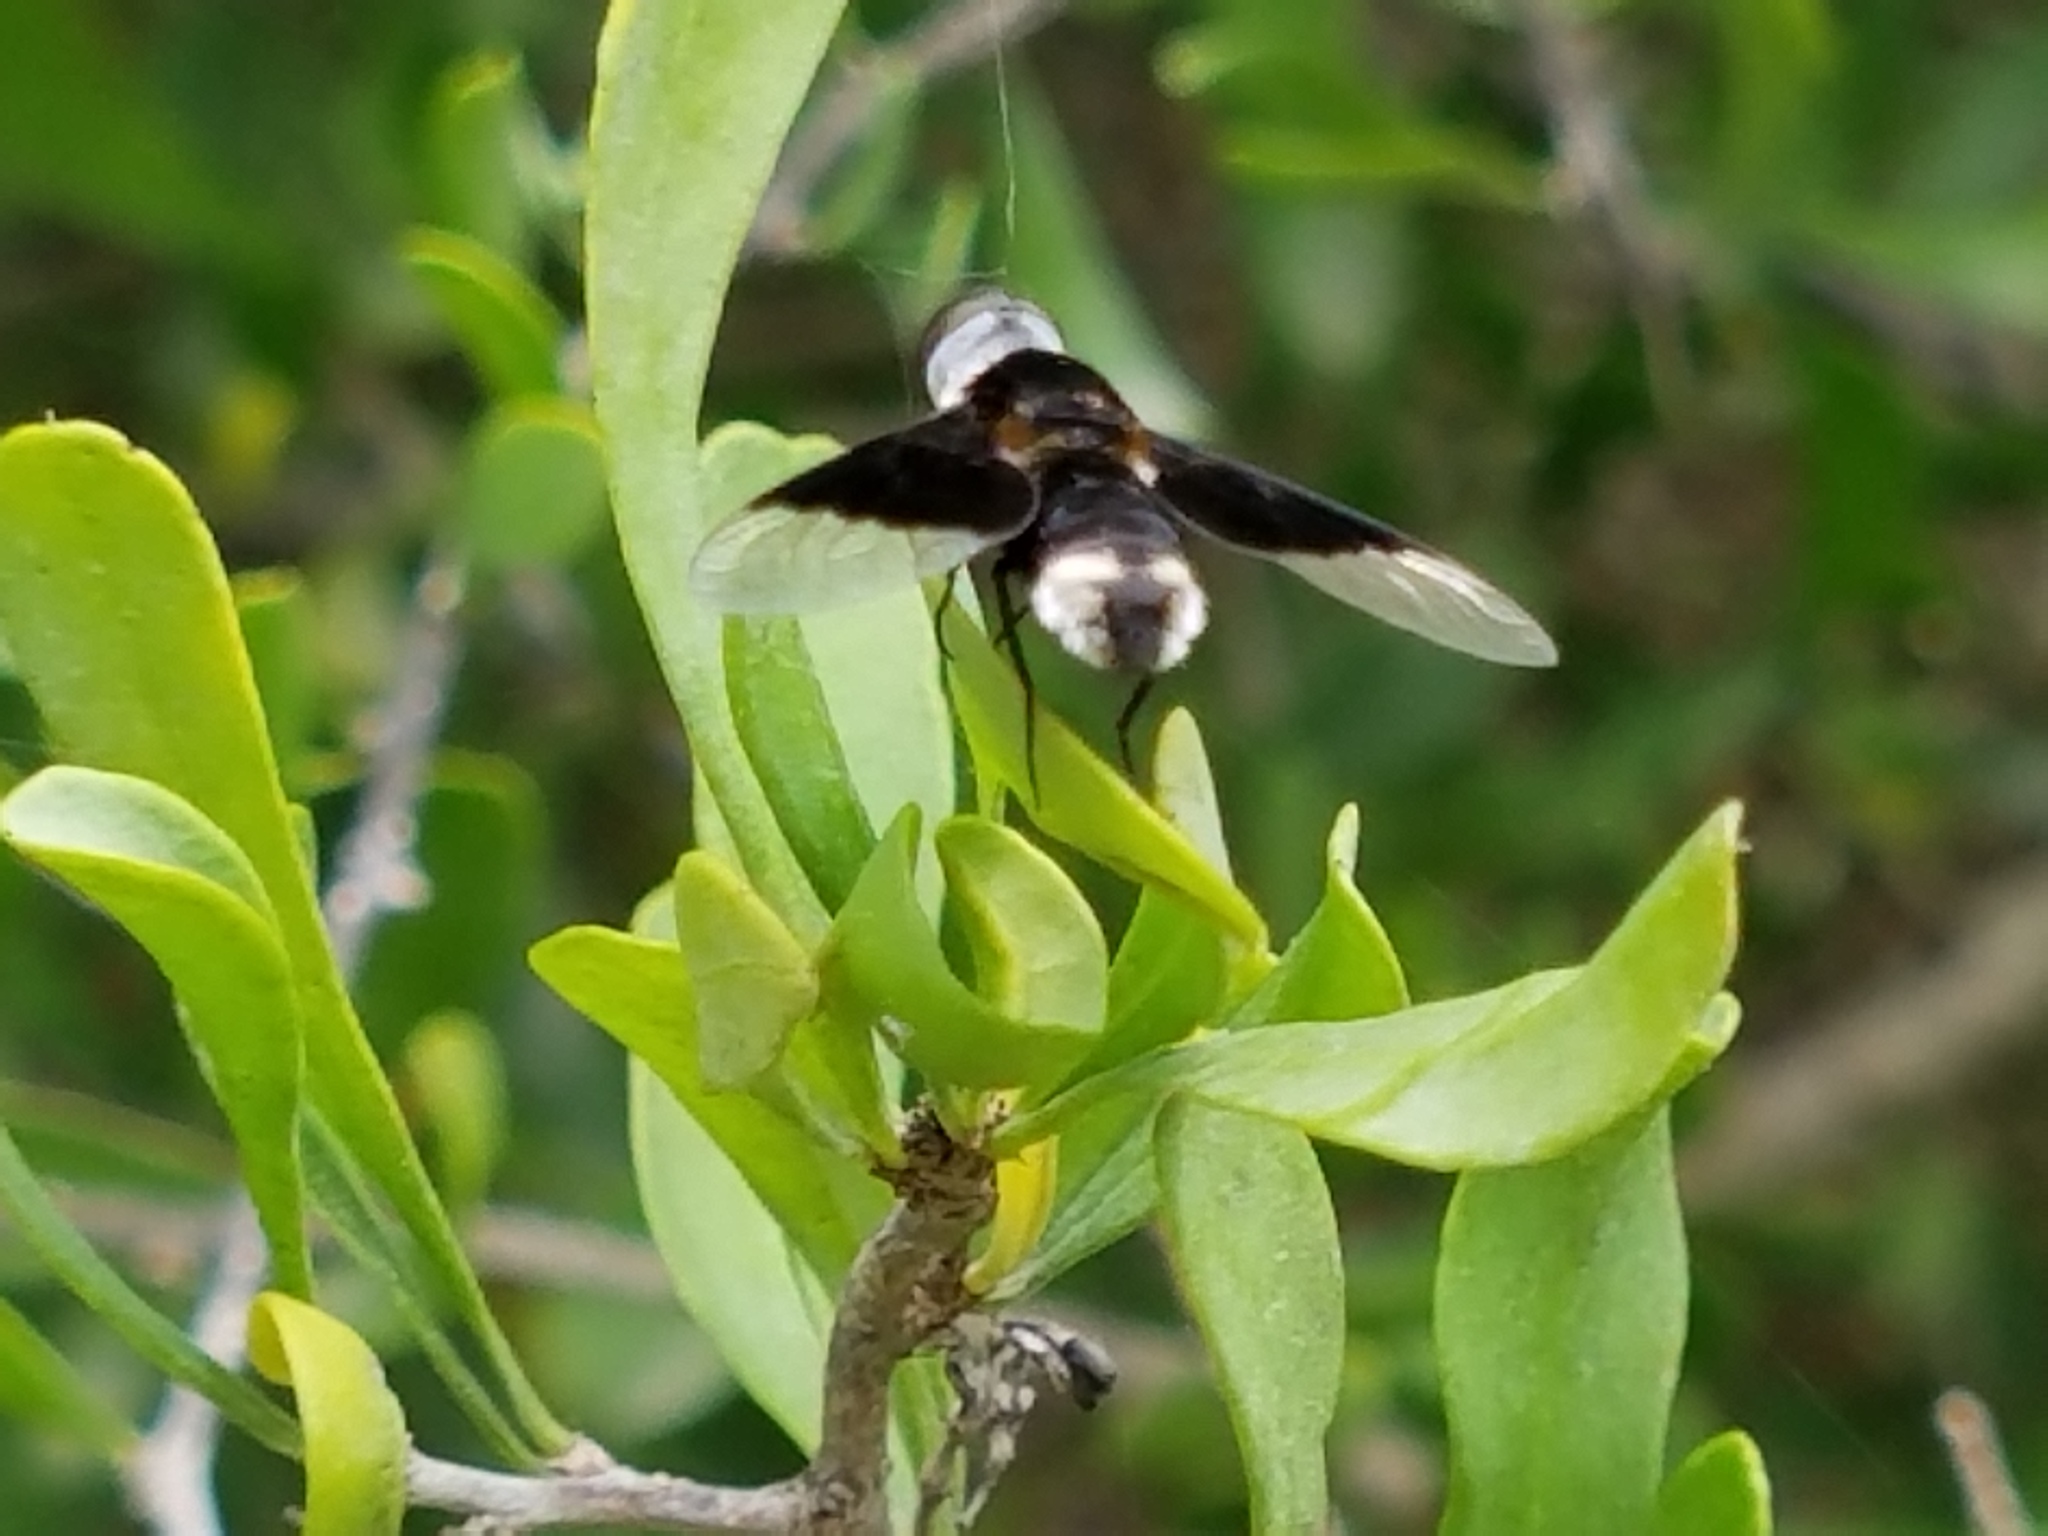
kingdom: Animalia
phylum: Arthropoda
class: Insecta
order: Diptera
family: Bombyliidae
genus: Ins
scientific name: Ins celeris
